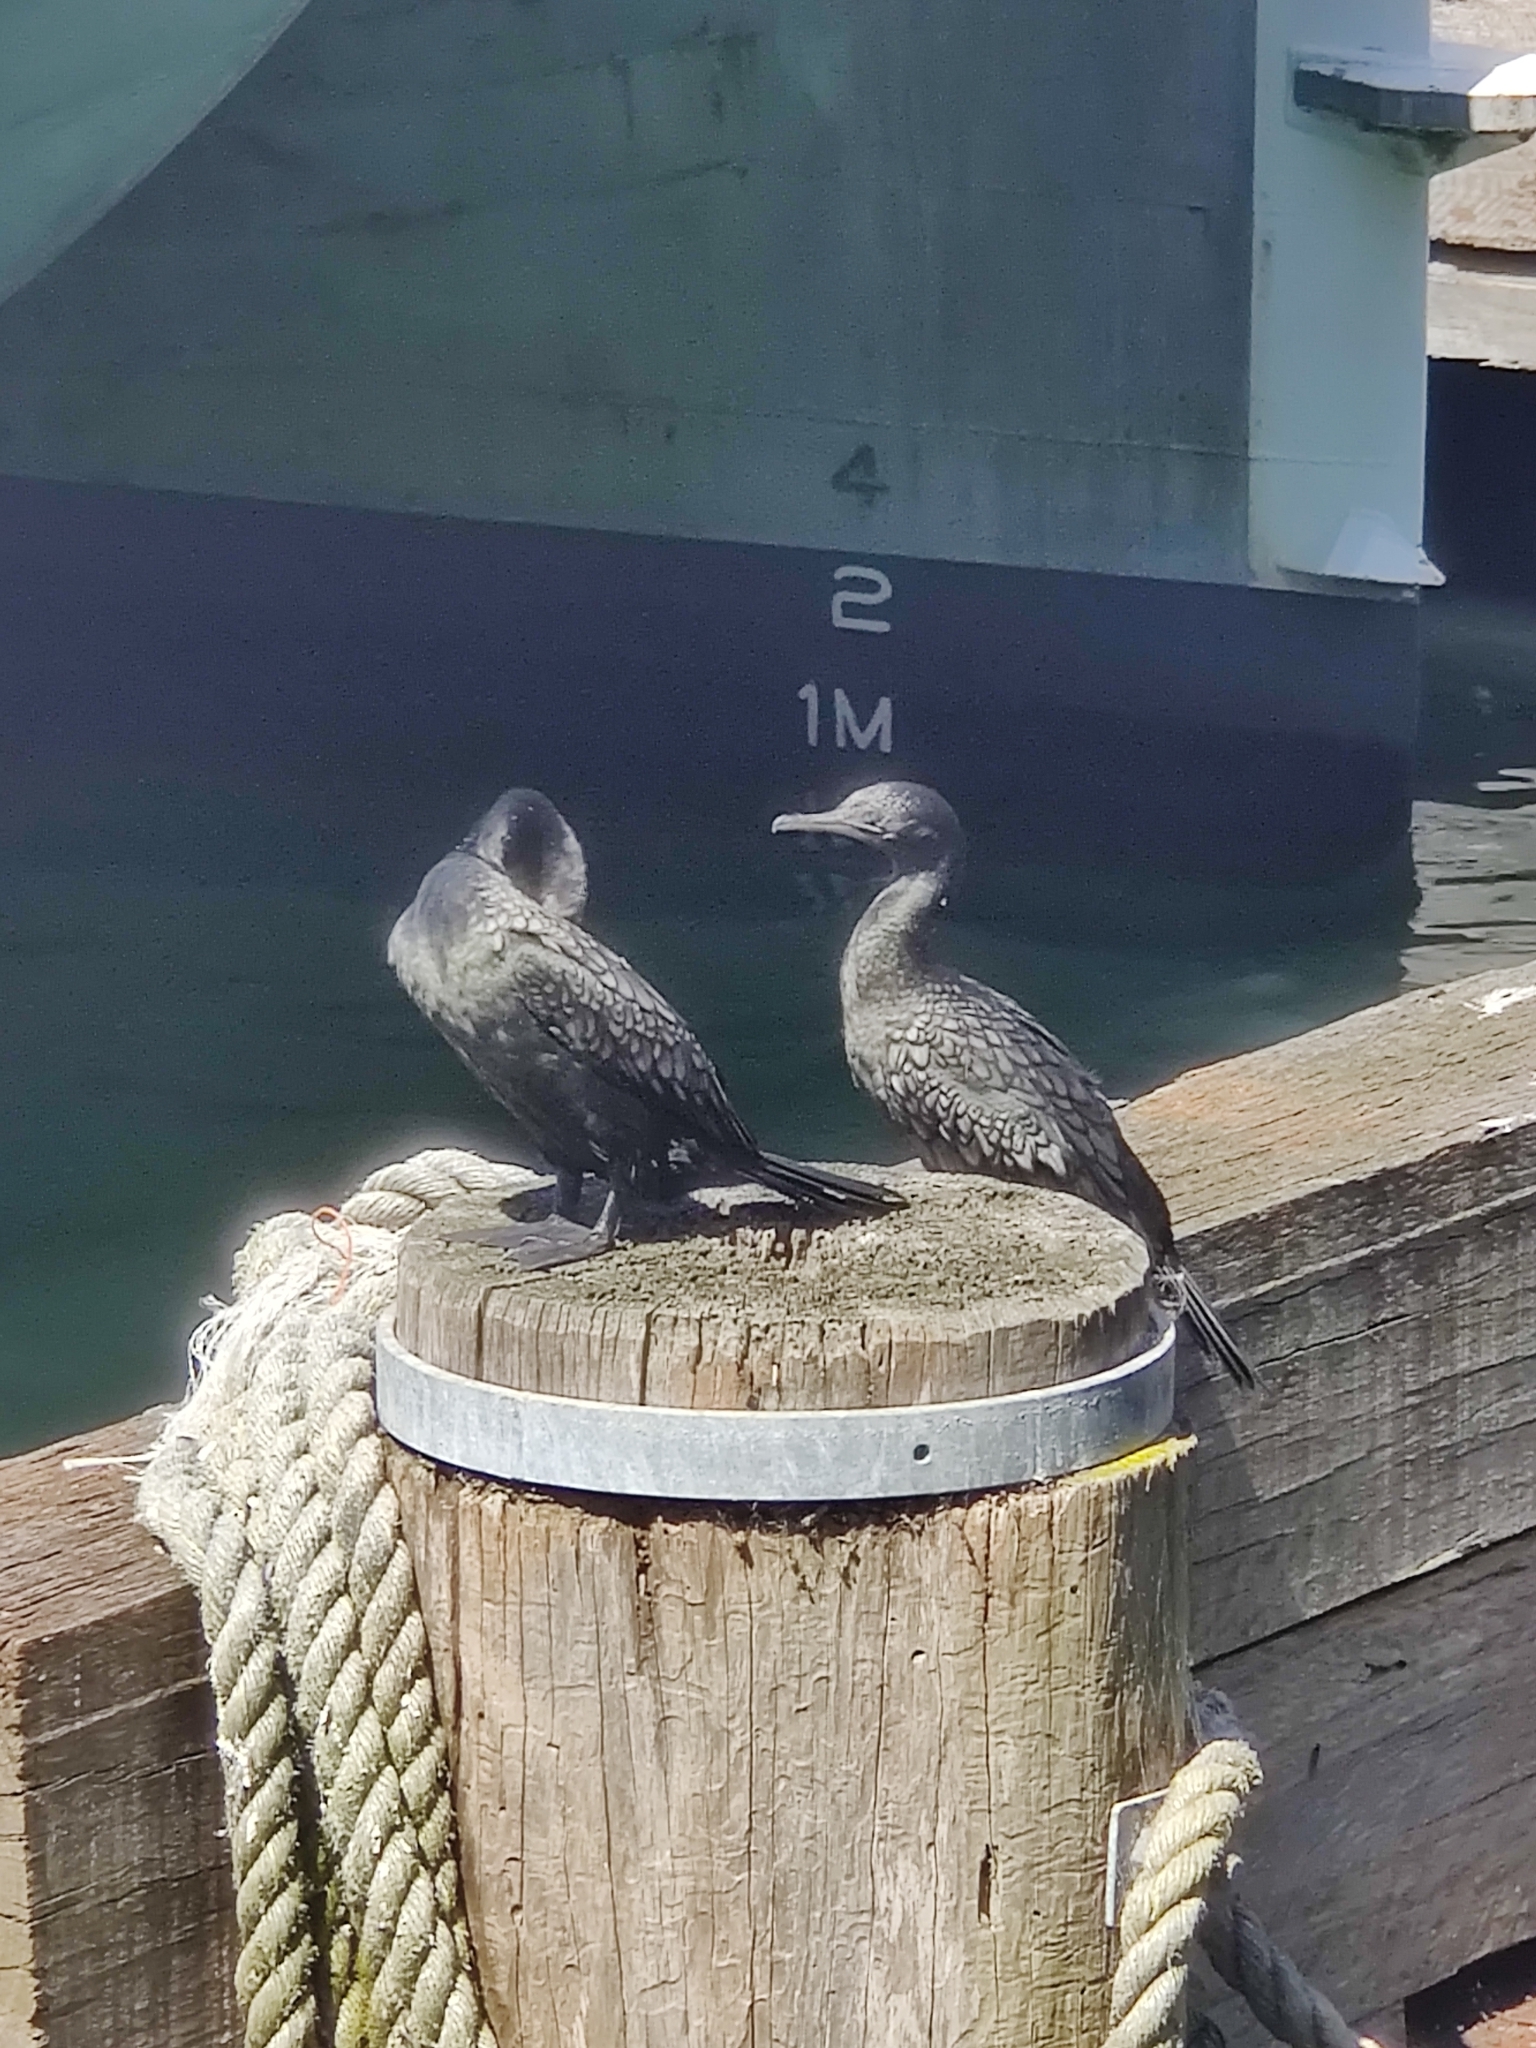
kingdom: Animalia
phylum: Chordata
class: Aves
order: Suliformes
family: Phalacrocoracidae
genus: Phalacrocorax
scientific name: Phalacrocorax sulcirostris
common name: Little black cormorant
